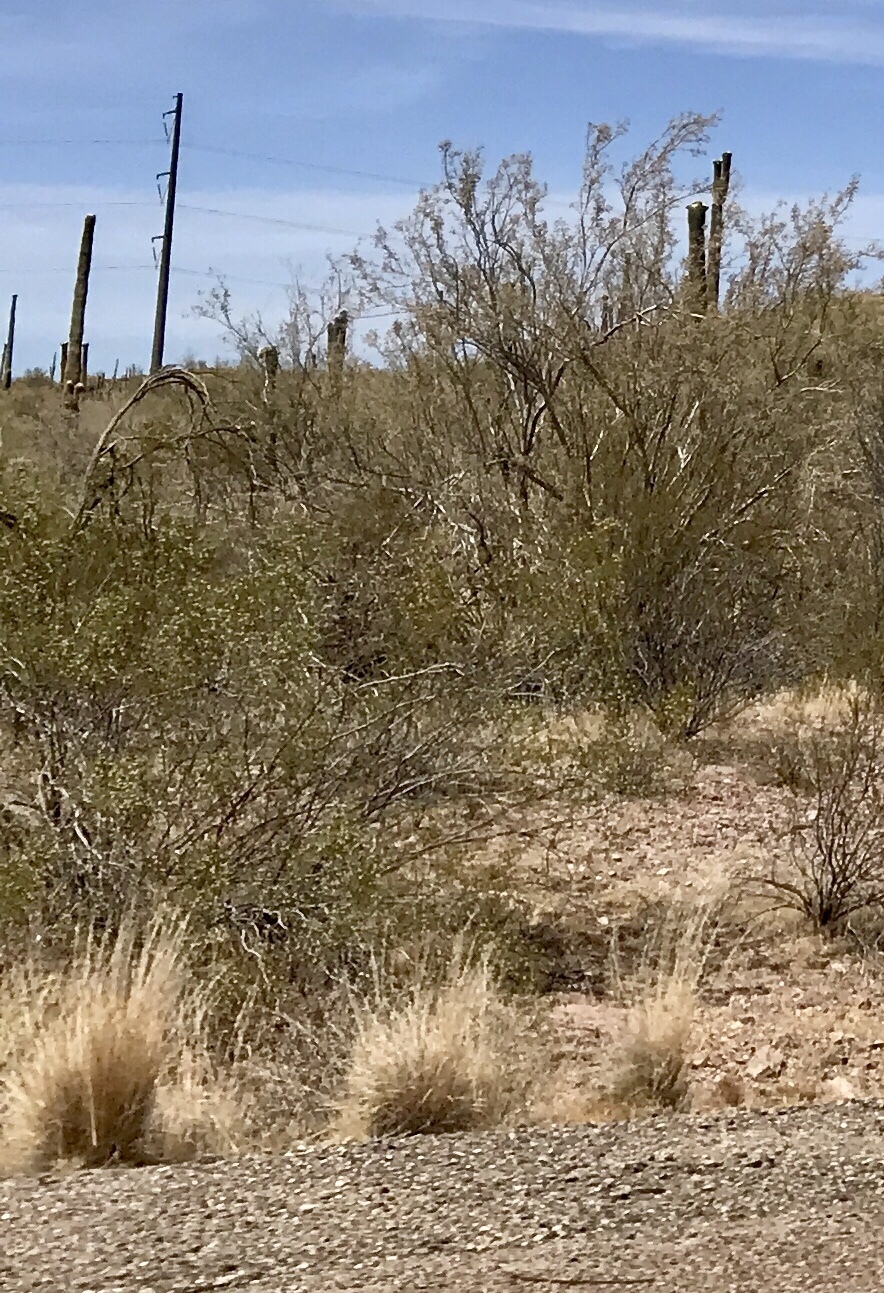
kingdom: Plantae
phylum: Tracheophyta
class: Magnoliopsida
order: Zygophyllales
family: Zygophyllaceae
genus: Larrea
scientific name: Larrea tridentata
